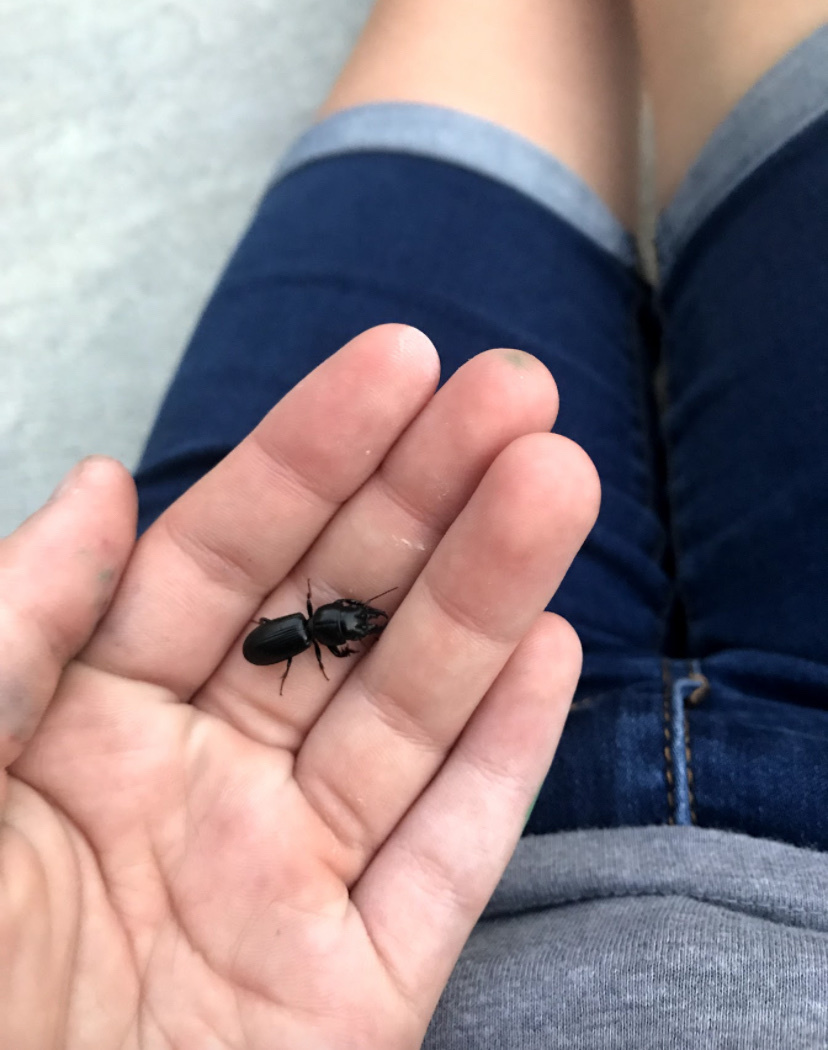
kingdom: Animalia
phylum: Arthropoda
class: Insecta
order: Coleoptera
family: Carabidae
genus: Scarites
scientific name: Scarites subterraneus
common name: Big-headed ground beetle
